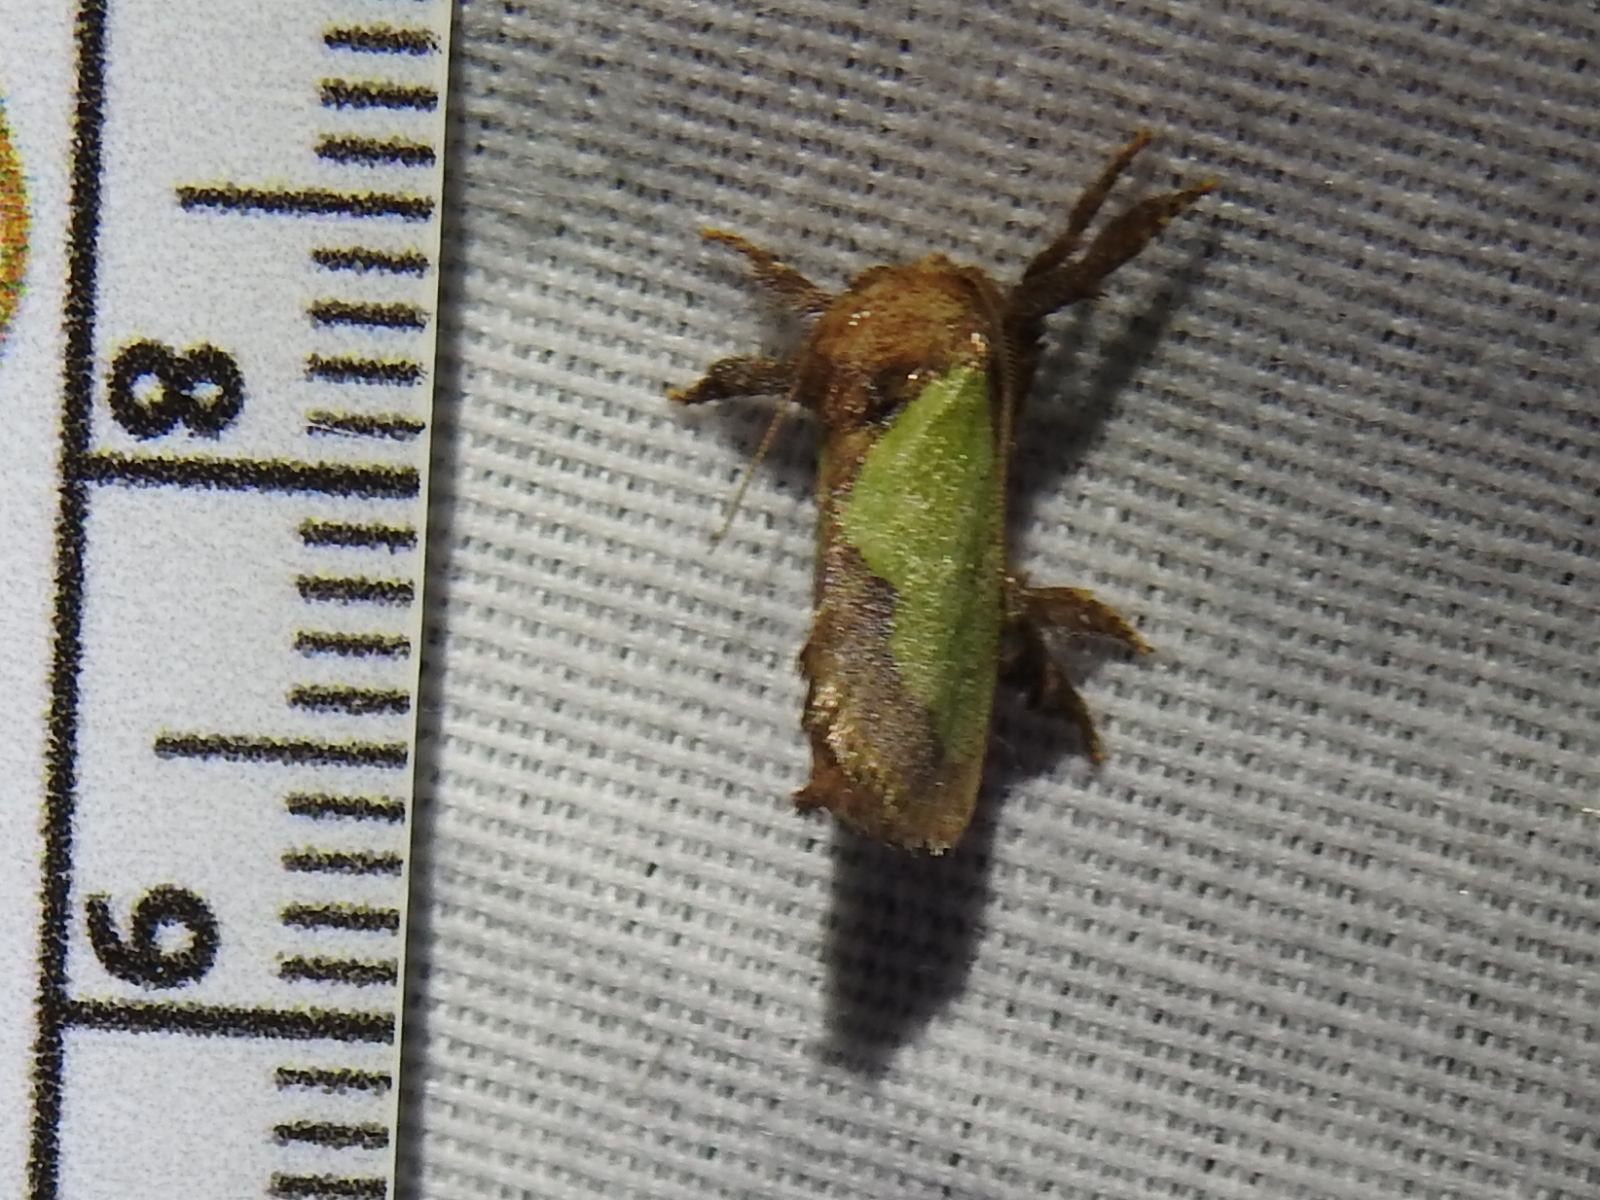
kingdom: Animalia
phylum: Arthropoda
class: Insecta
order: Lepidoptera
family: Limacodidae
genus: Euclea
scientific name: Euclea incisa
